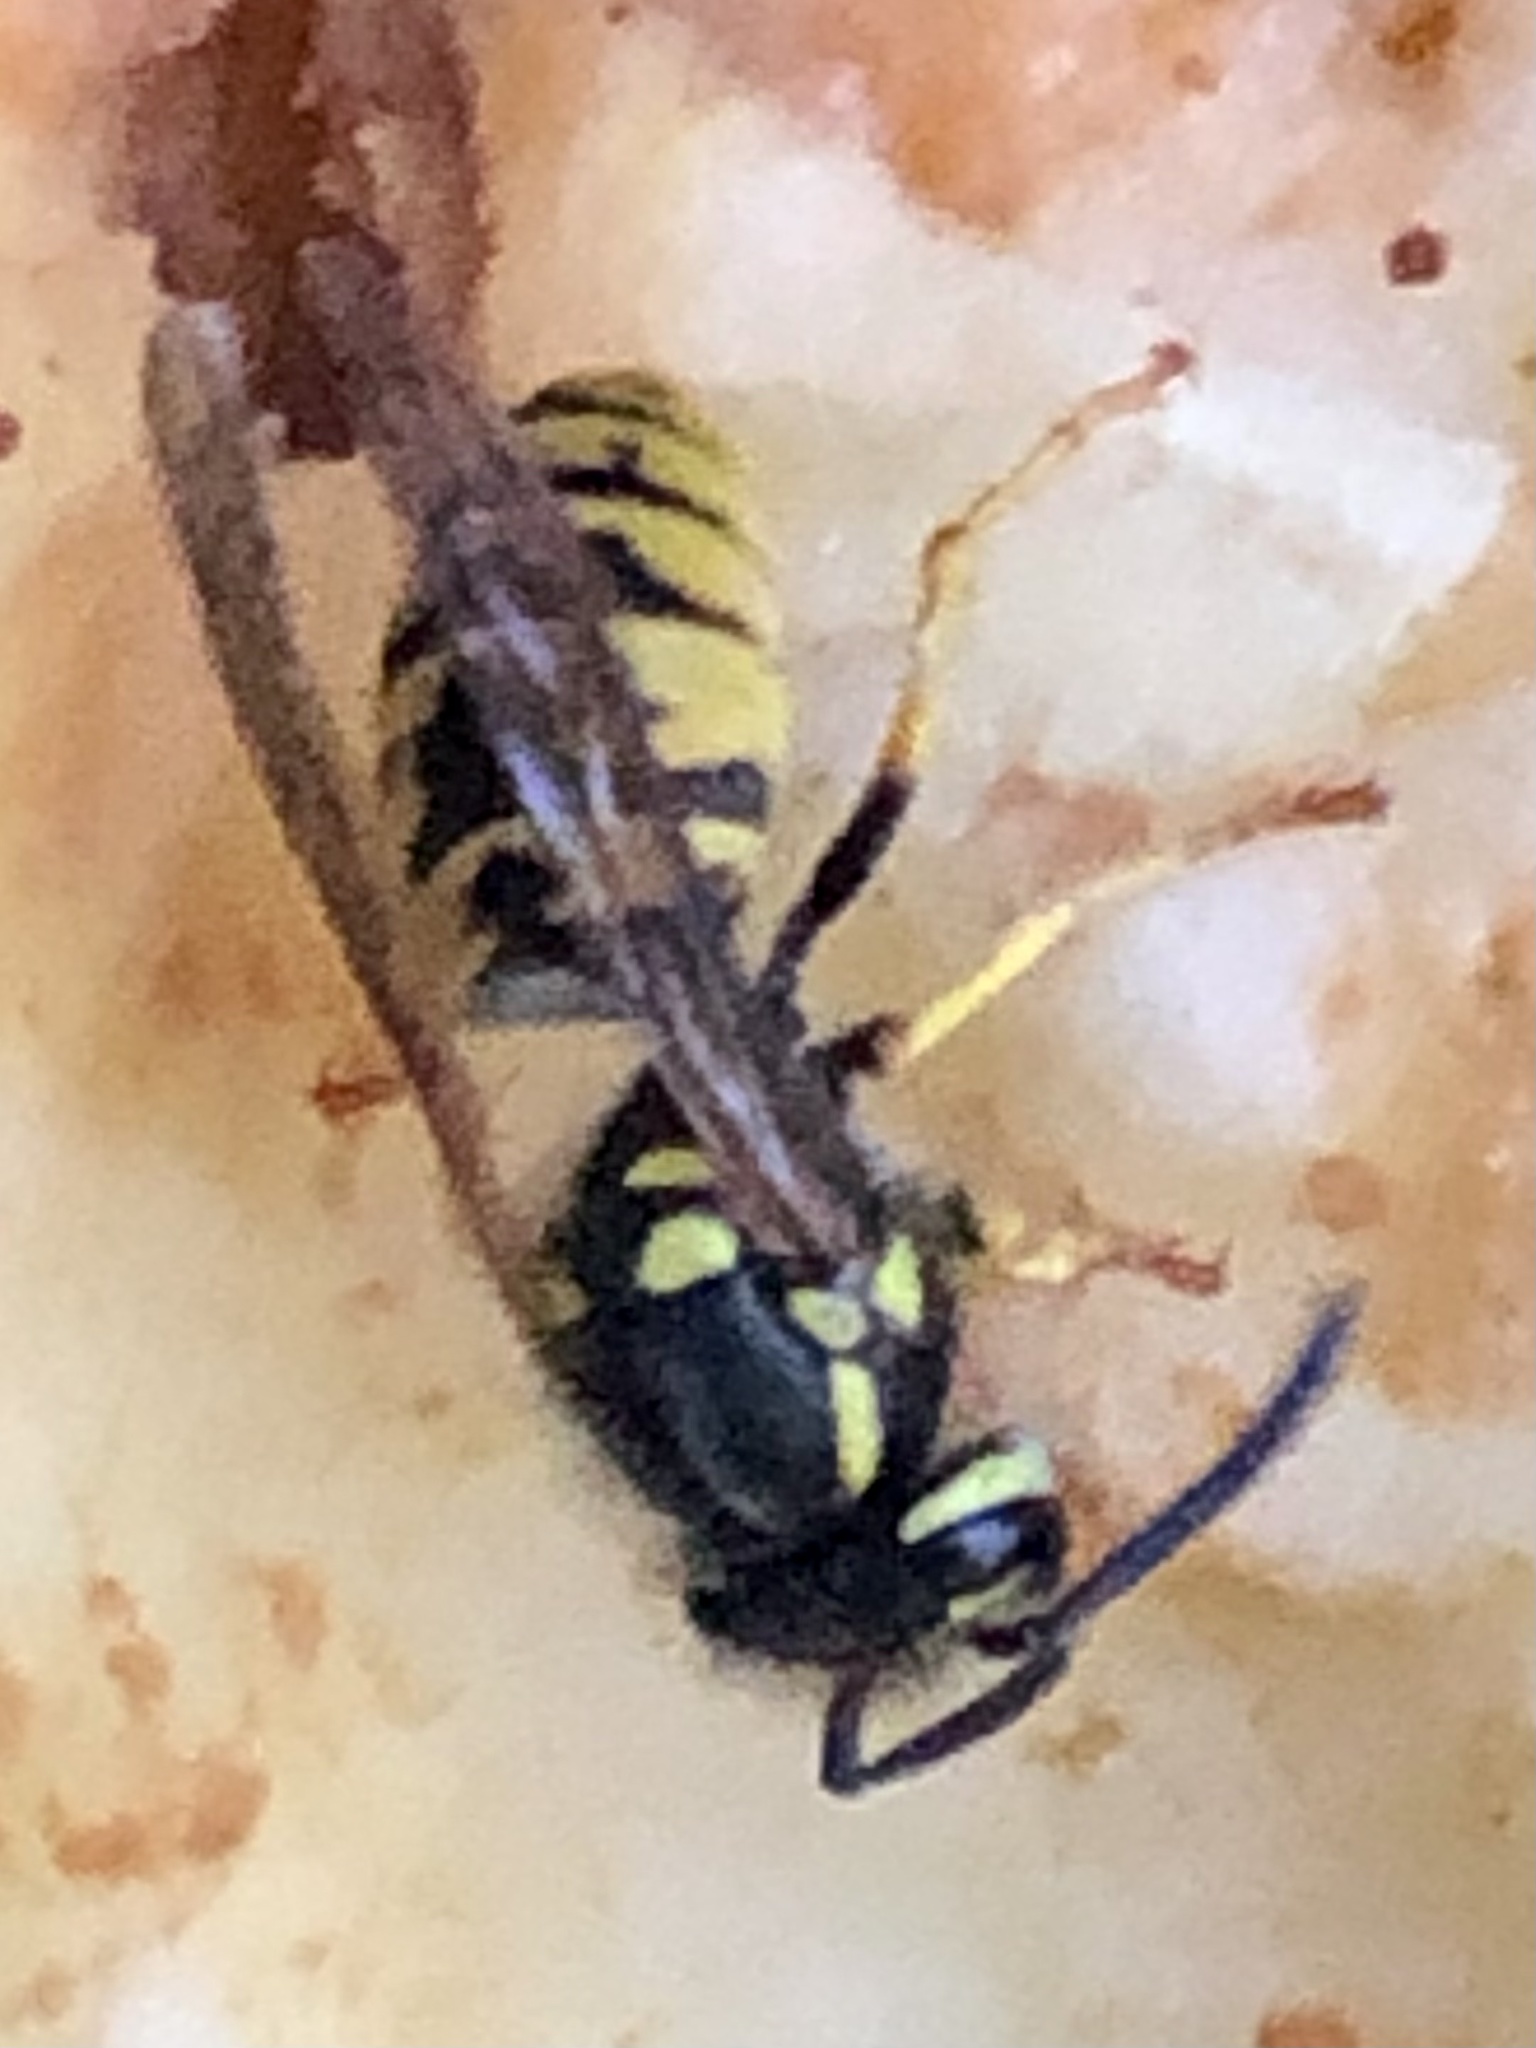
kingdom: Animalia
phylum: Arthropoda
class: Insecta
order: Hymenoptera
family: Vespidae
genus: Vespula
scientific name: Vespula germanica
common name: German wasp
